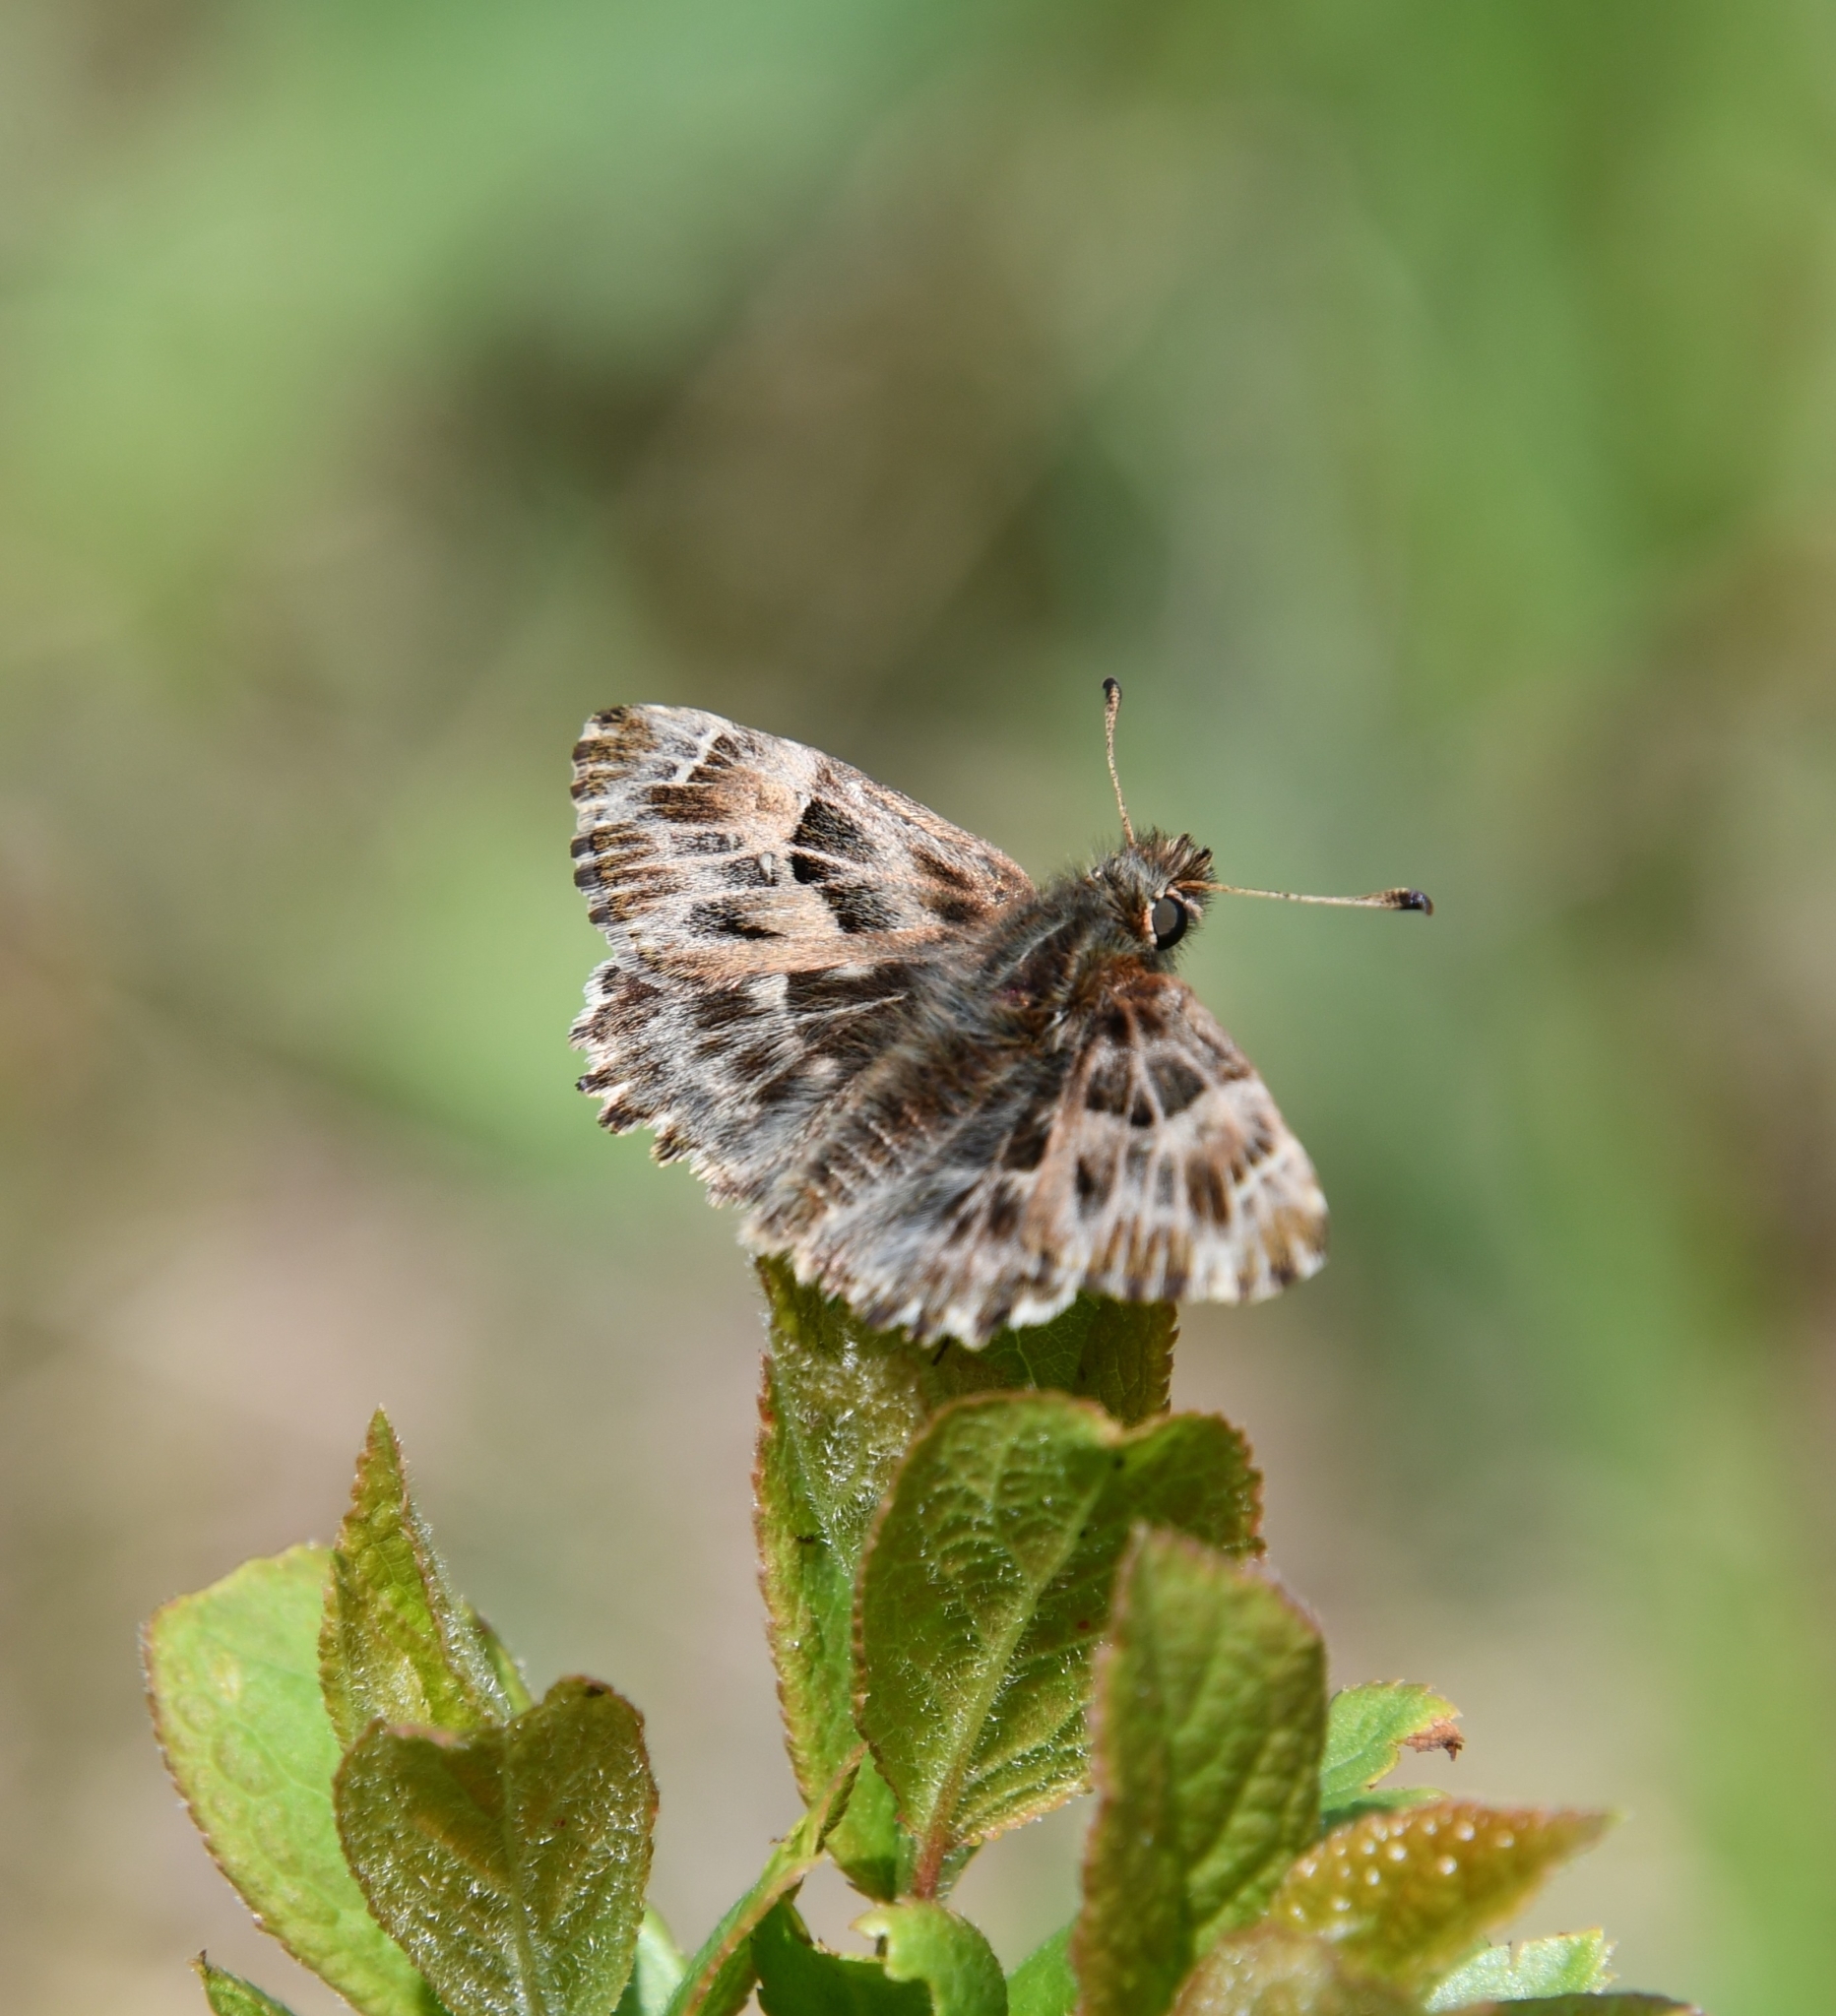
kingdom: Animalia
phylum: Arthropoda
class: Insecta
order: Lepidoptera
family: Hesperiidae
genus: Carcharodus
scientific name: Carcharodus alceae
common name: Mallow skipper
